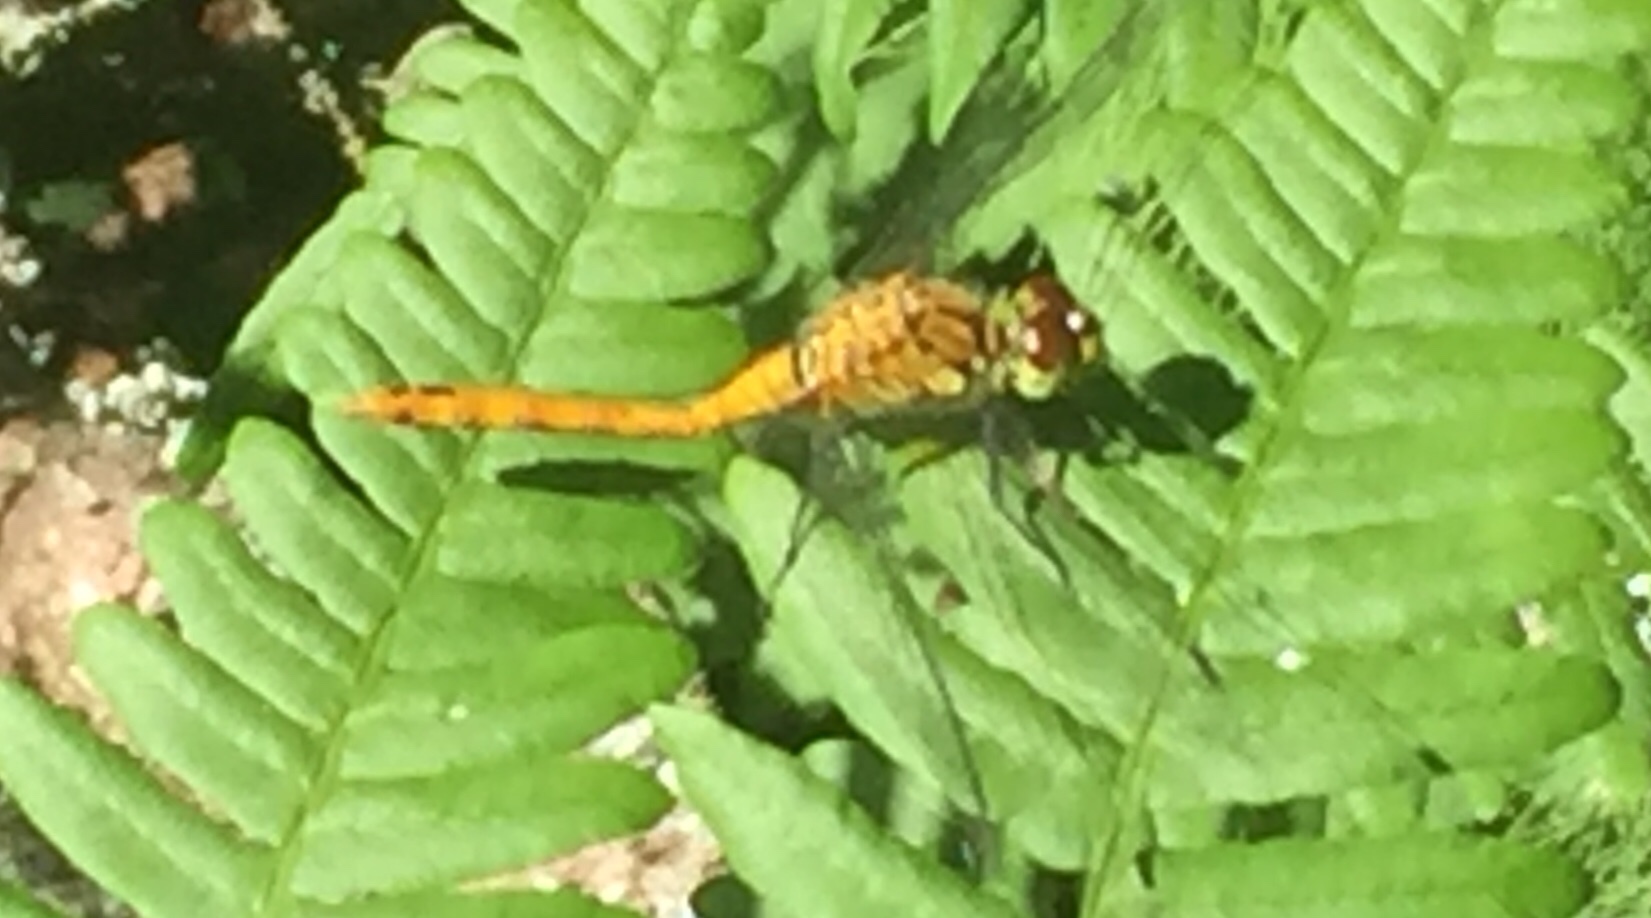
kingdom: Plantae
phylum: Tracheophyta
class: Polypodiopsida
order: Polypodiales
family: Dennstaedtiaceae
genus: Pteridium
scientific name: Pteridium aquilinum
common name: Bracken
